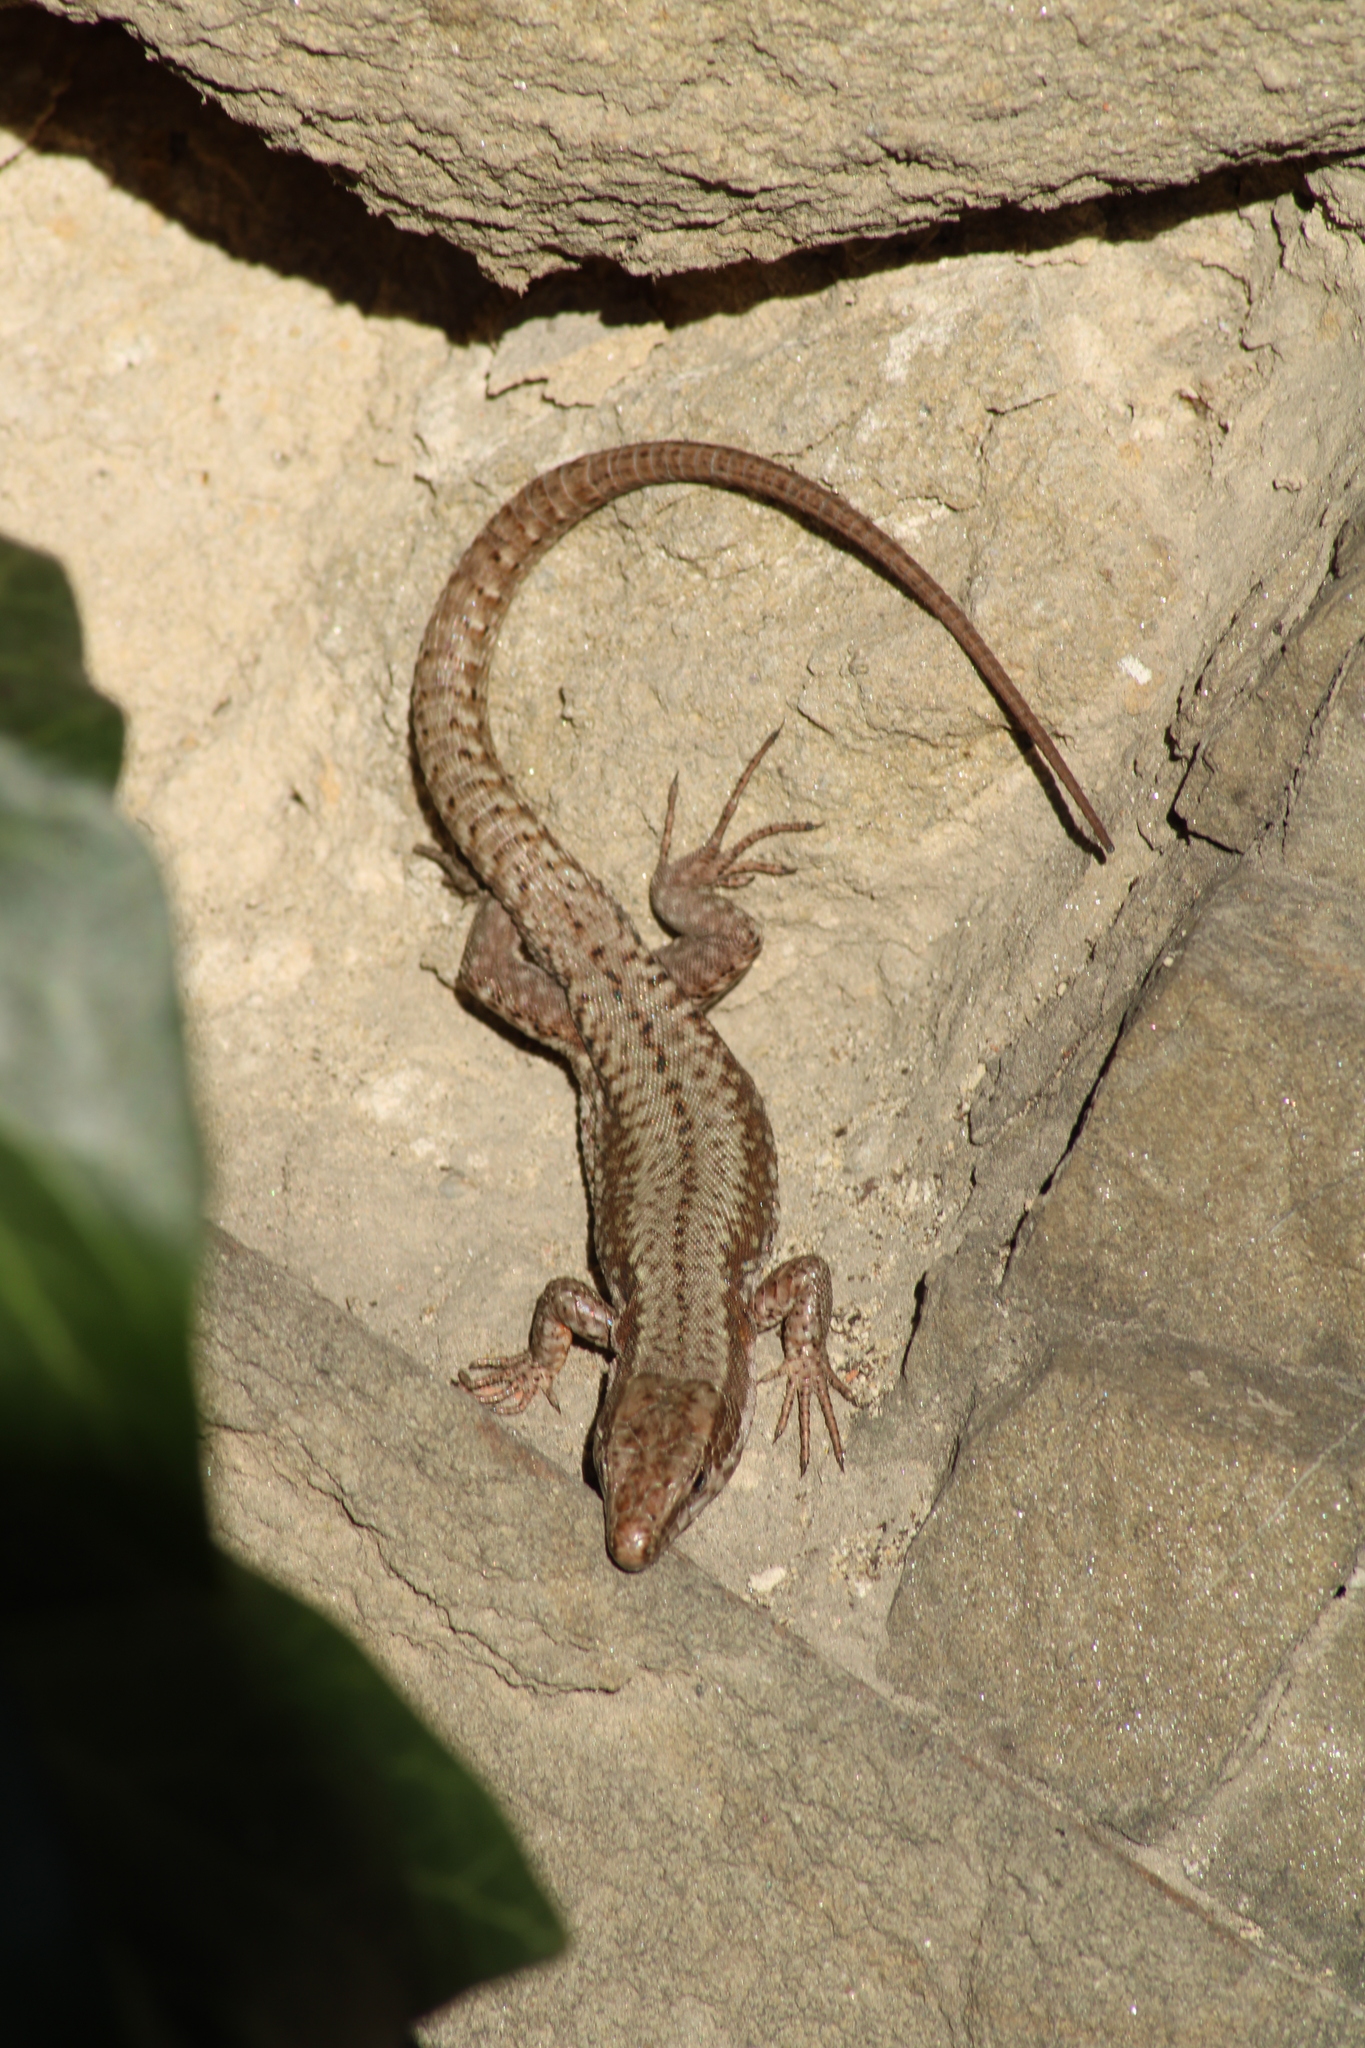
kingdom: Animalia
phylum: Chordata
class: Squamata
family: Lacertidae
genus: Podarcis
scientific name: Podarcis muralis
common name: Common wall lizard
